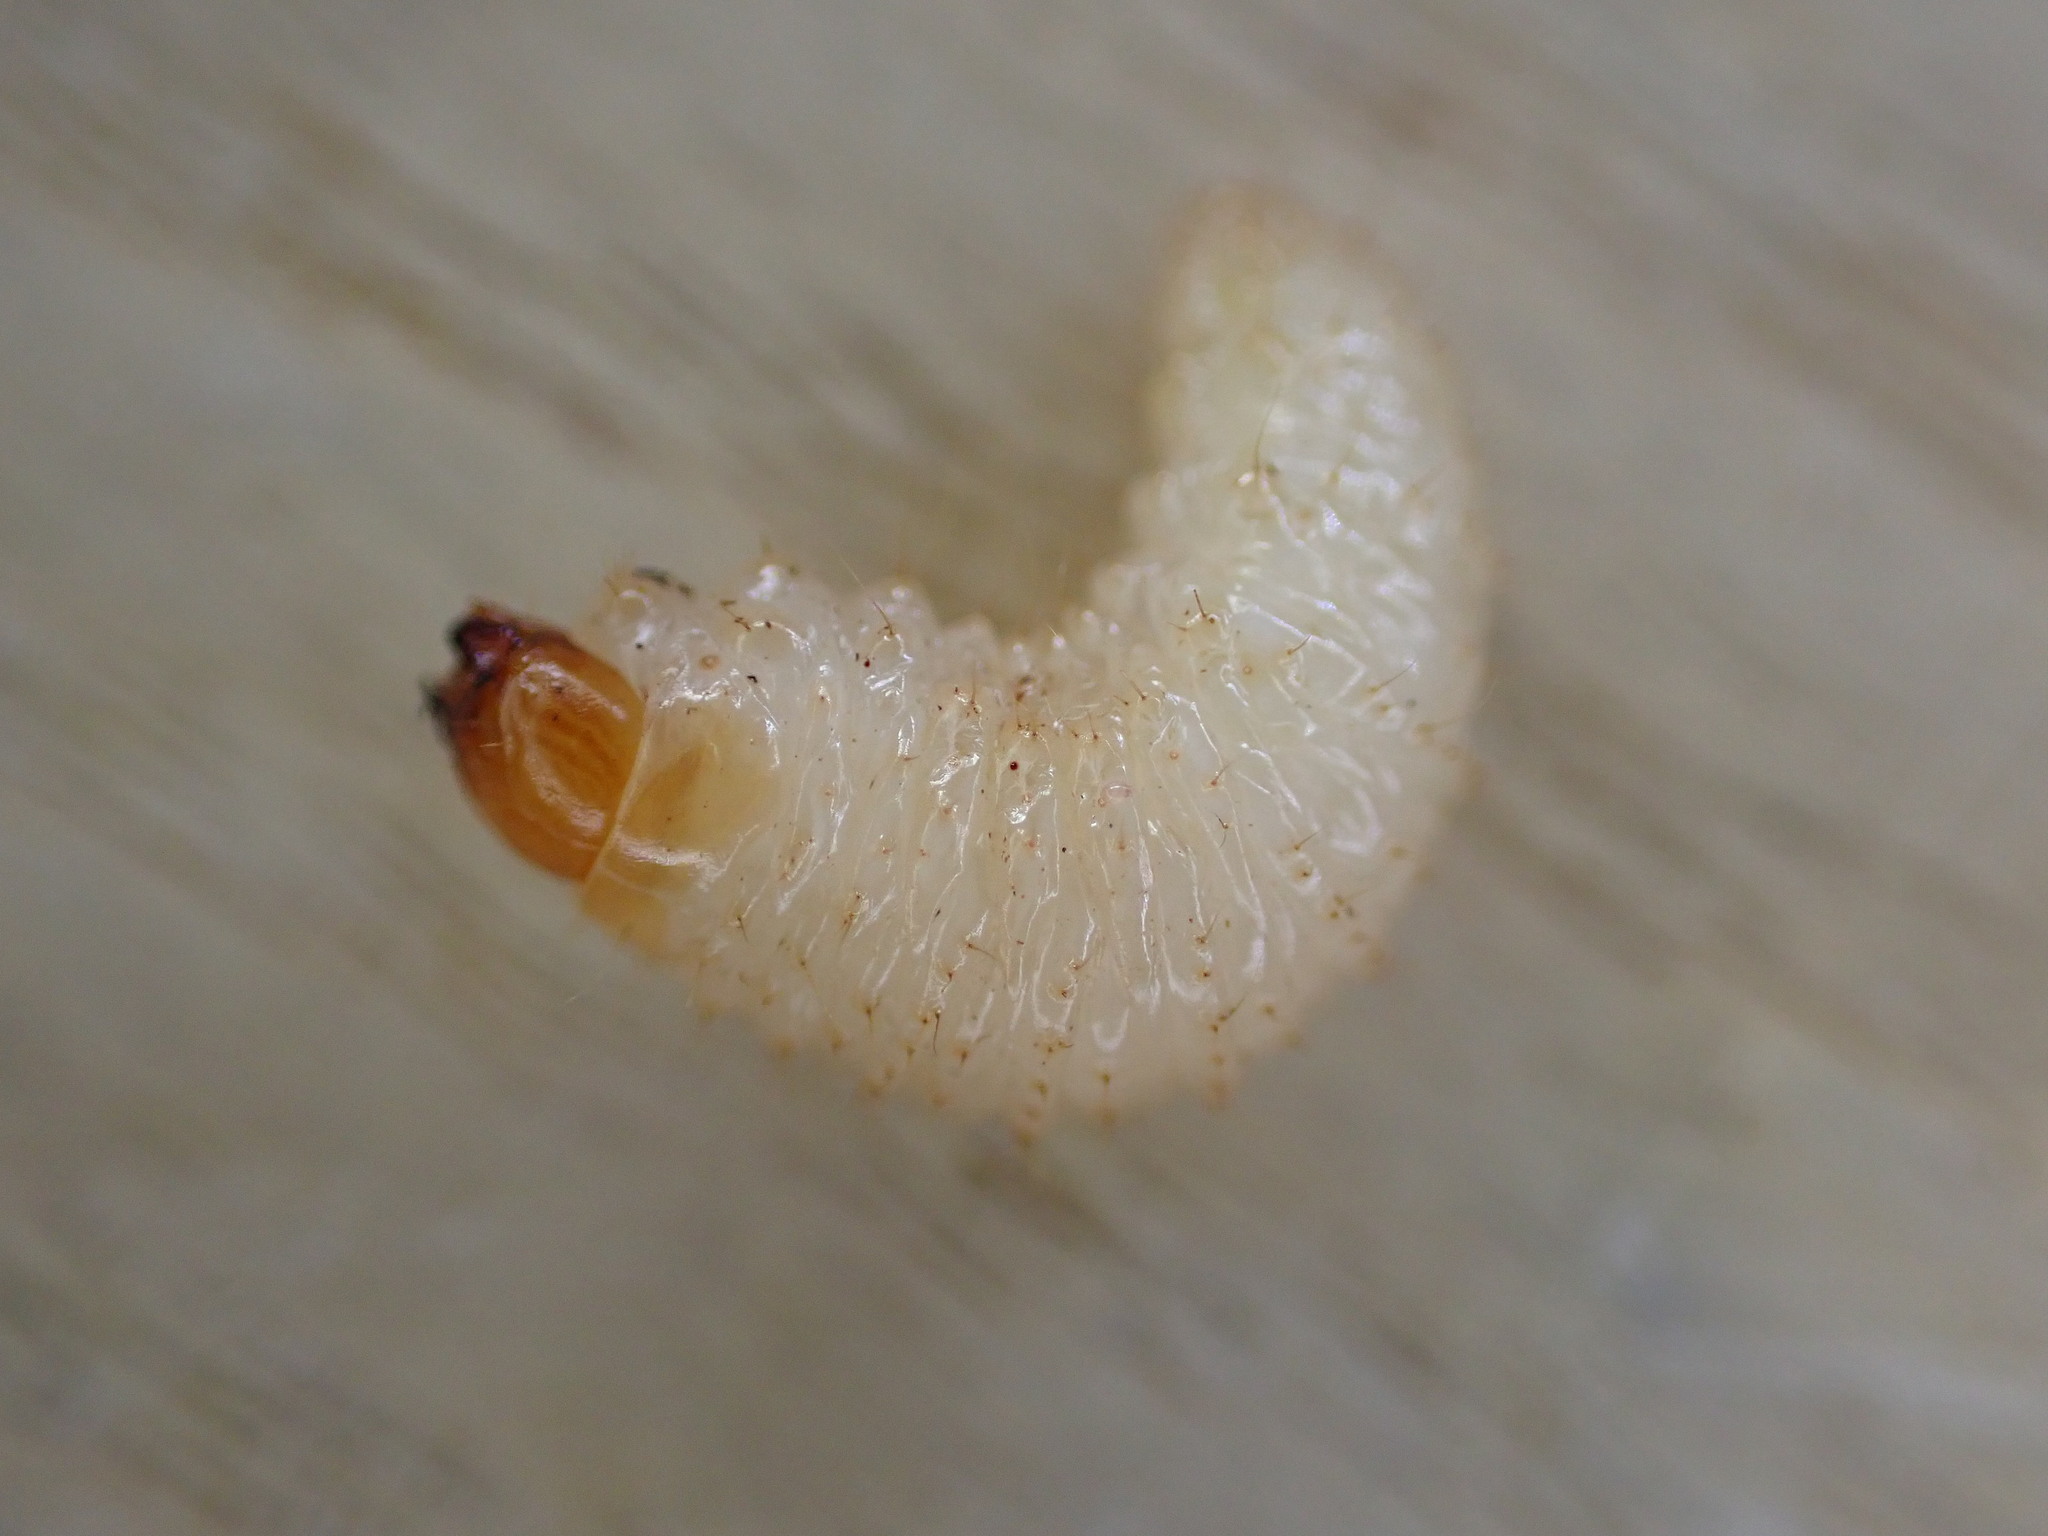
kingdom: Animalia
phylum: Arthropoda
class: Insecta
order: Coleoptera
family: Curculionidae
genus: Otiorhynchus
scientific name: Otiorhynchus sulcatus
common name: Black vine weevil
